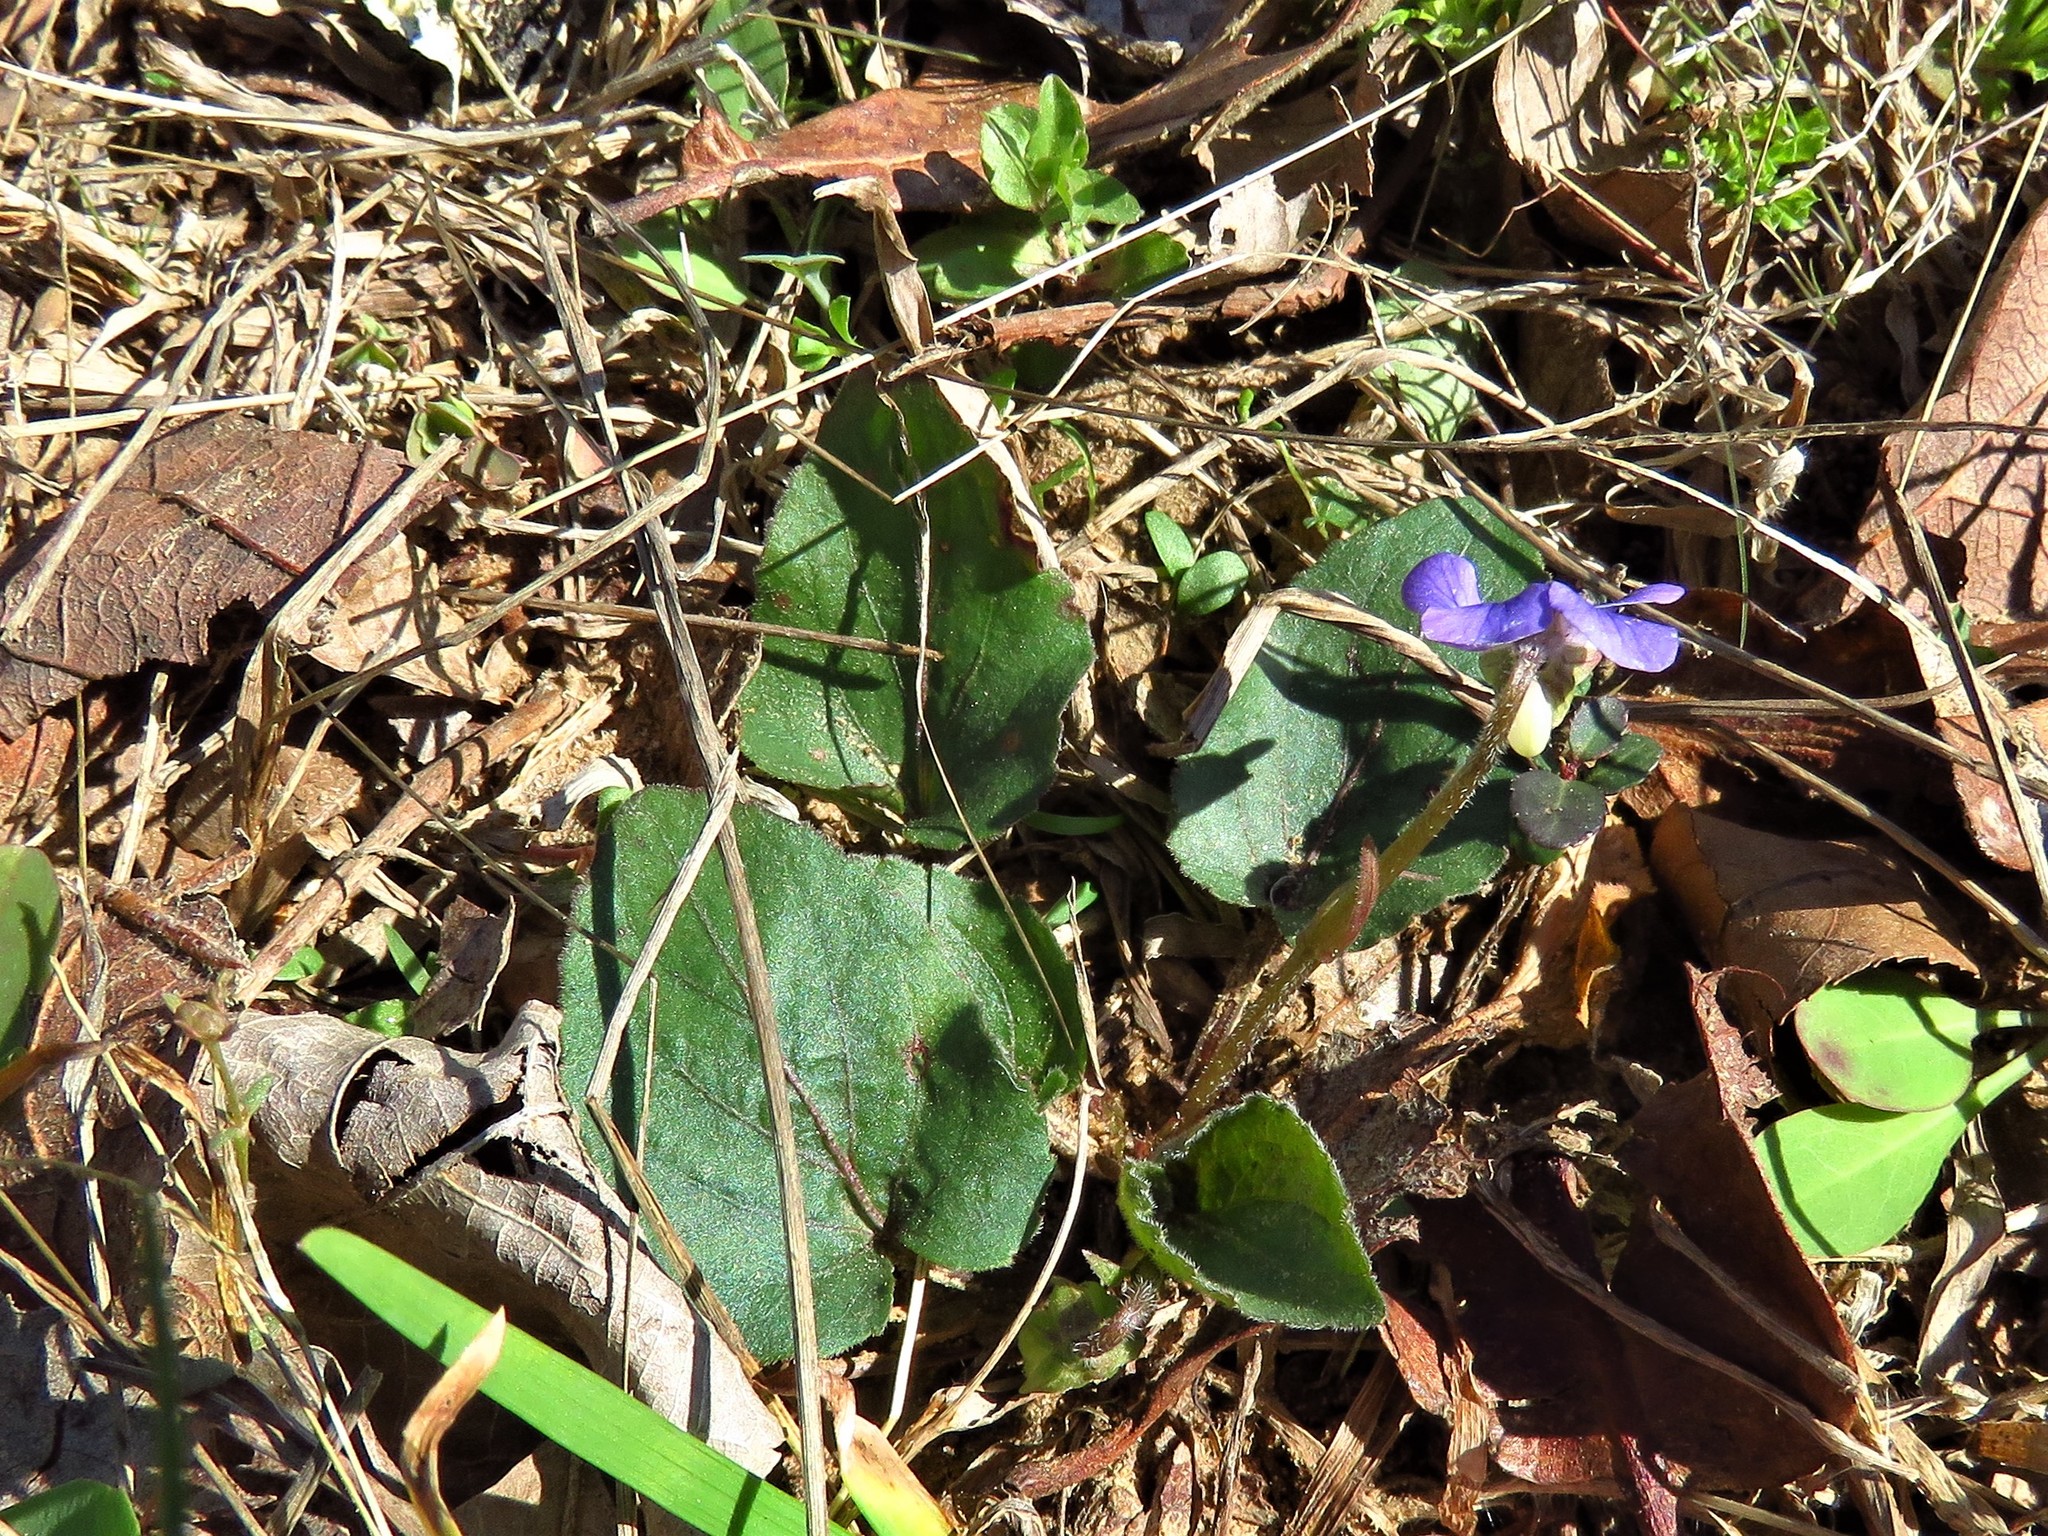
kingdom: Plantae
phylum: Tracheophyta
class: Magnoliopsida
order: Malpighiales
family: Violaceae
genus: Viola
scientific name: Viola sororia
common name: Dooryard violet
